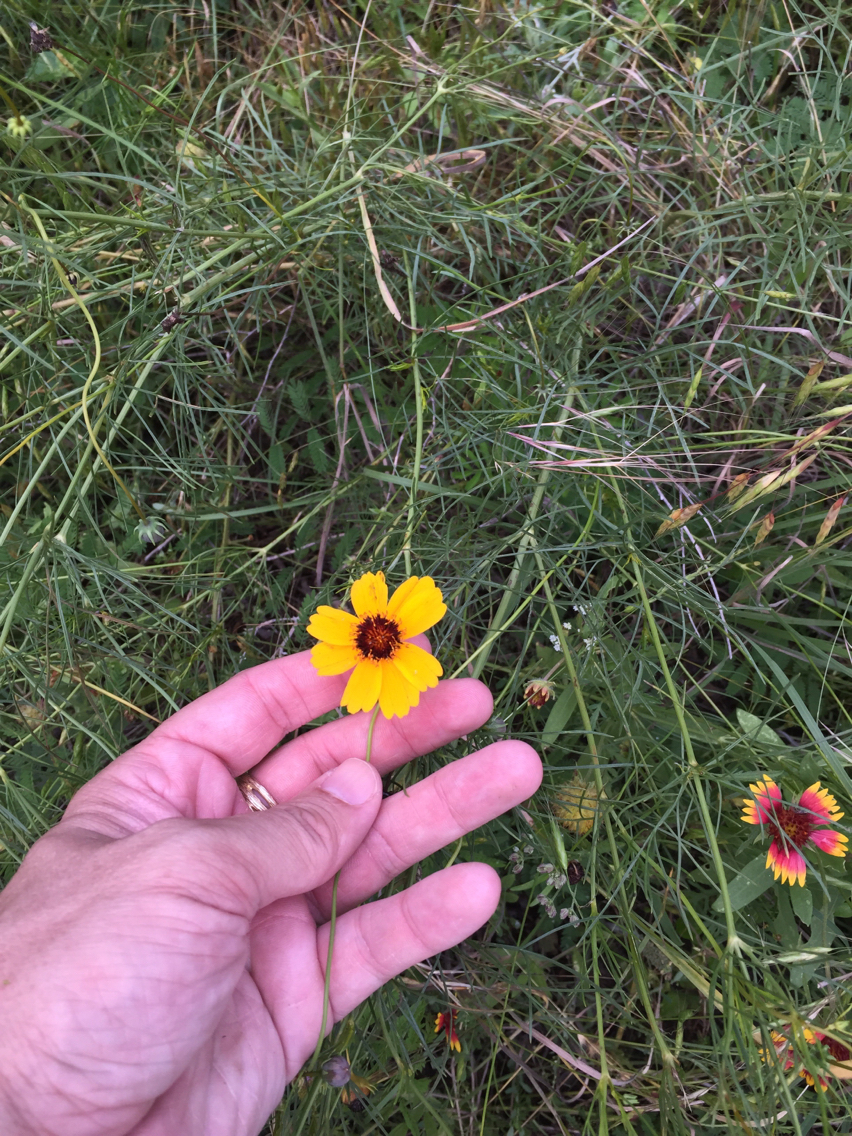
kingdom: Plantae
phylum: Tracheophyta
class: Magnoliopsida
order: Asterales
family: Asteraceae
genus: Thelesperma
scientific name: Thelesperma filifolium
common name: Stiff greenthread
